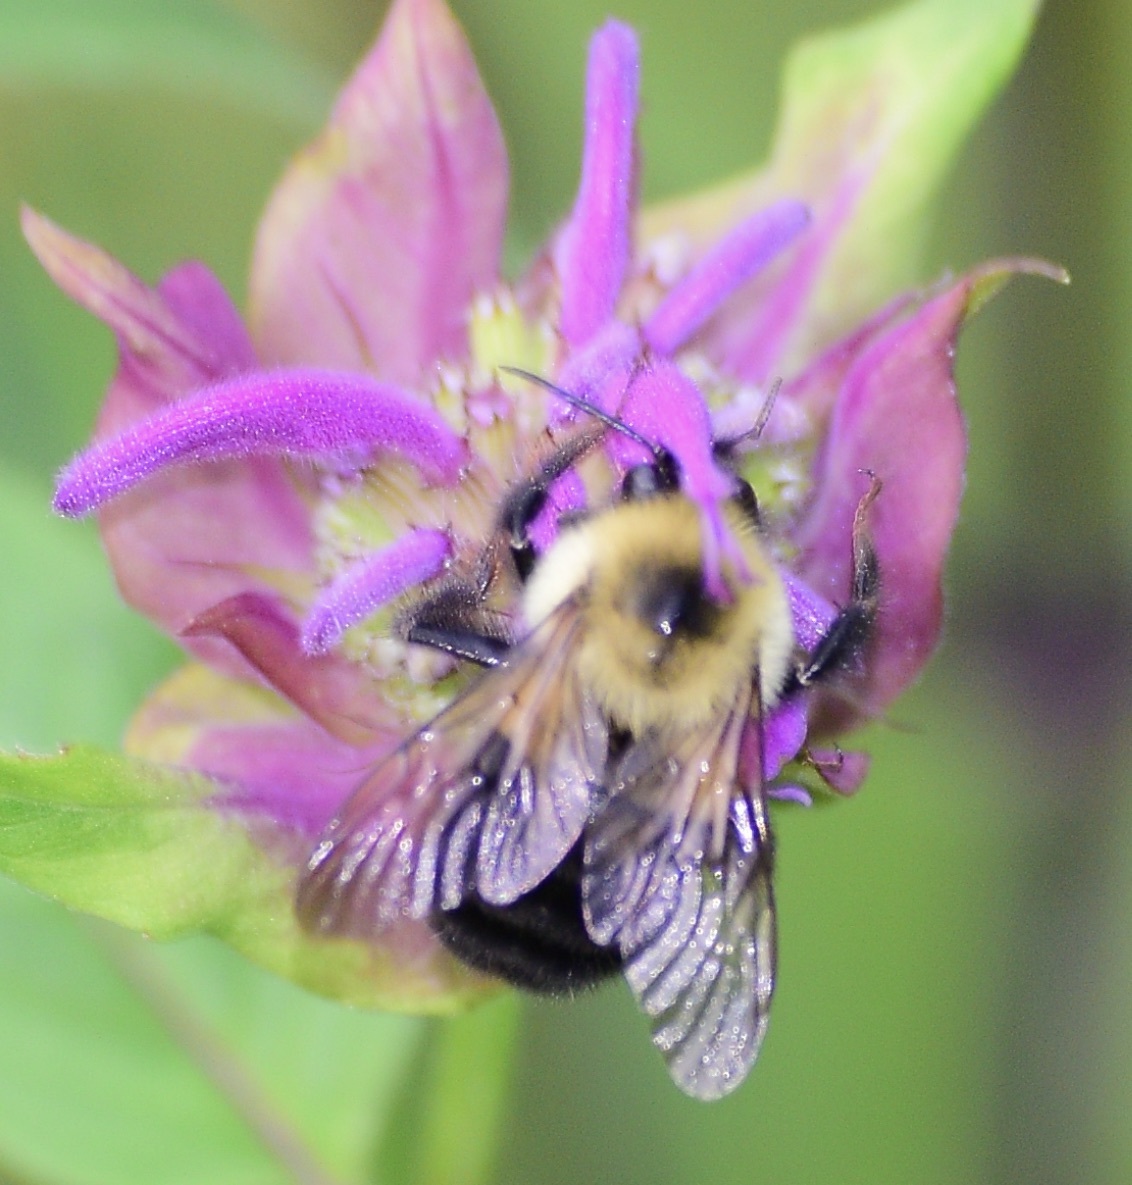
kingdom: Animalia
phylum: Arthropoda
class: Insecta
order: Hymenoptera
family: Apidae
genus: Bombus
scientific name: Bombus bimaculatus
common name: Two-spotted bumble bee
